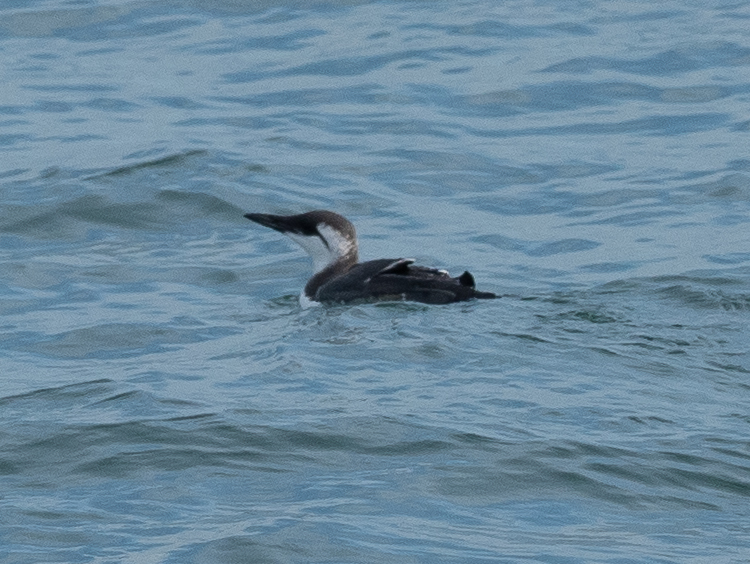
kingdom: Animalia
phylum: Chordata
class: Aves
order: Charadriiformes
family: Alcidae
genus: Uria
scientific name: Uria aalge
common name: Common murre
